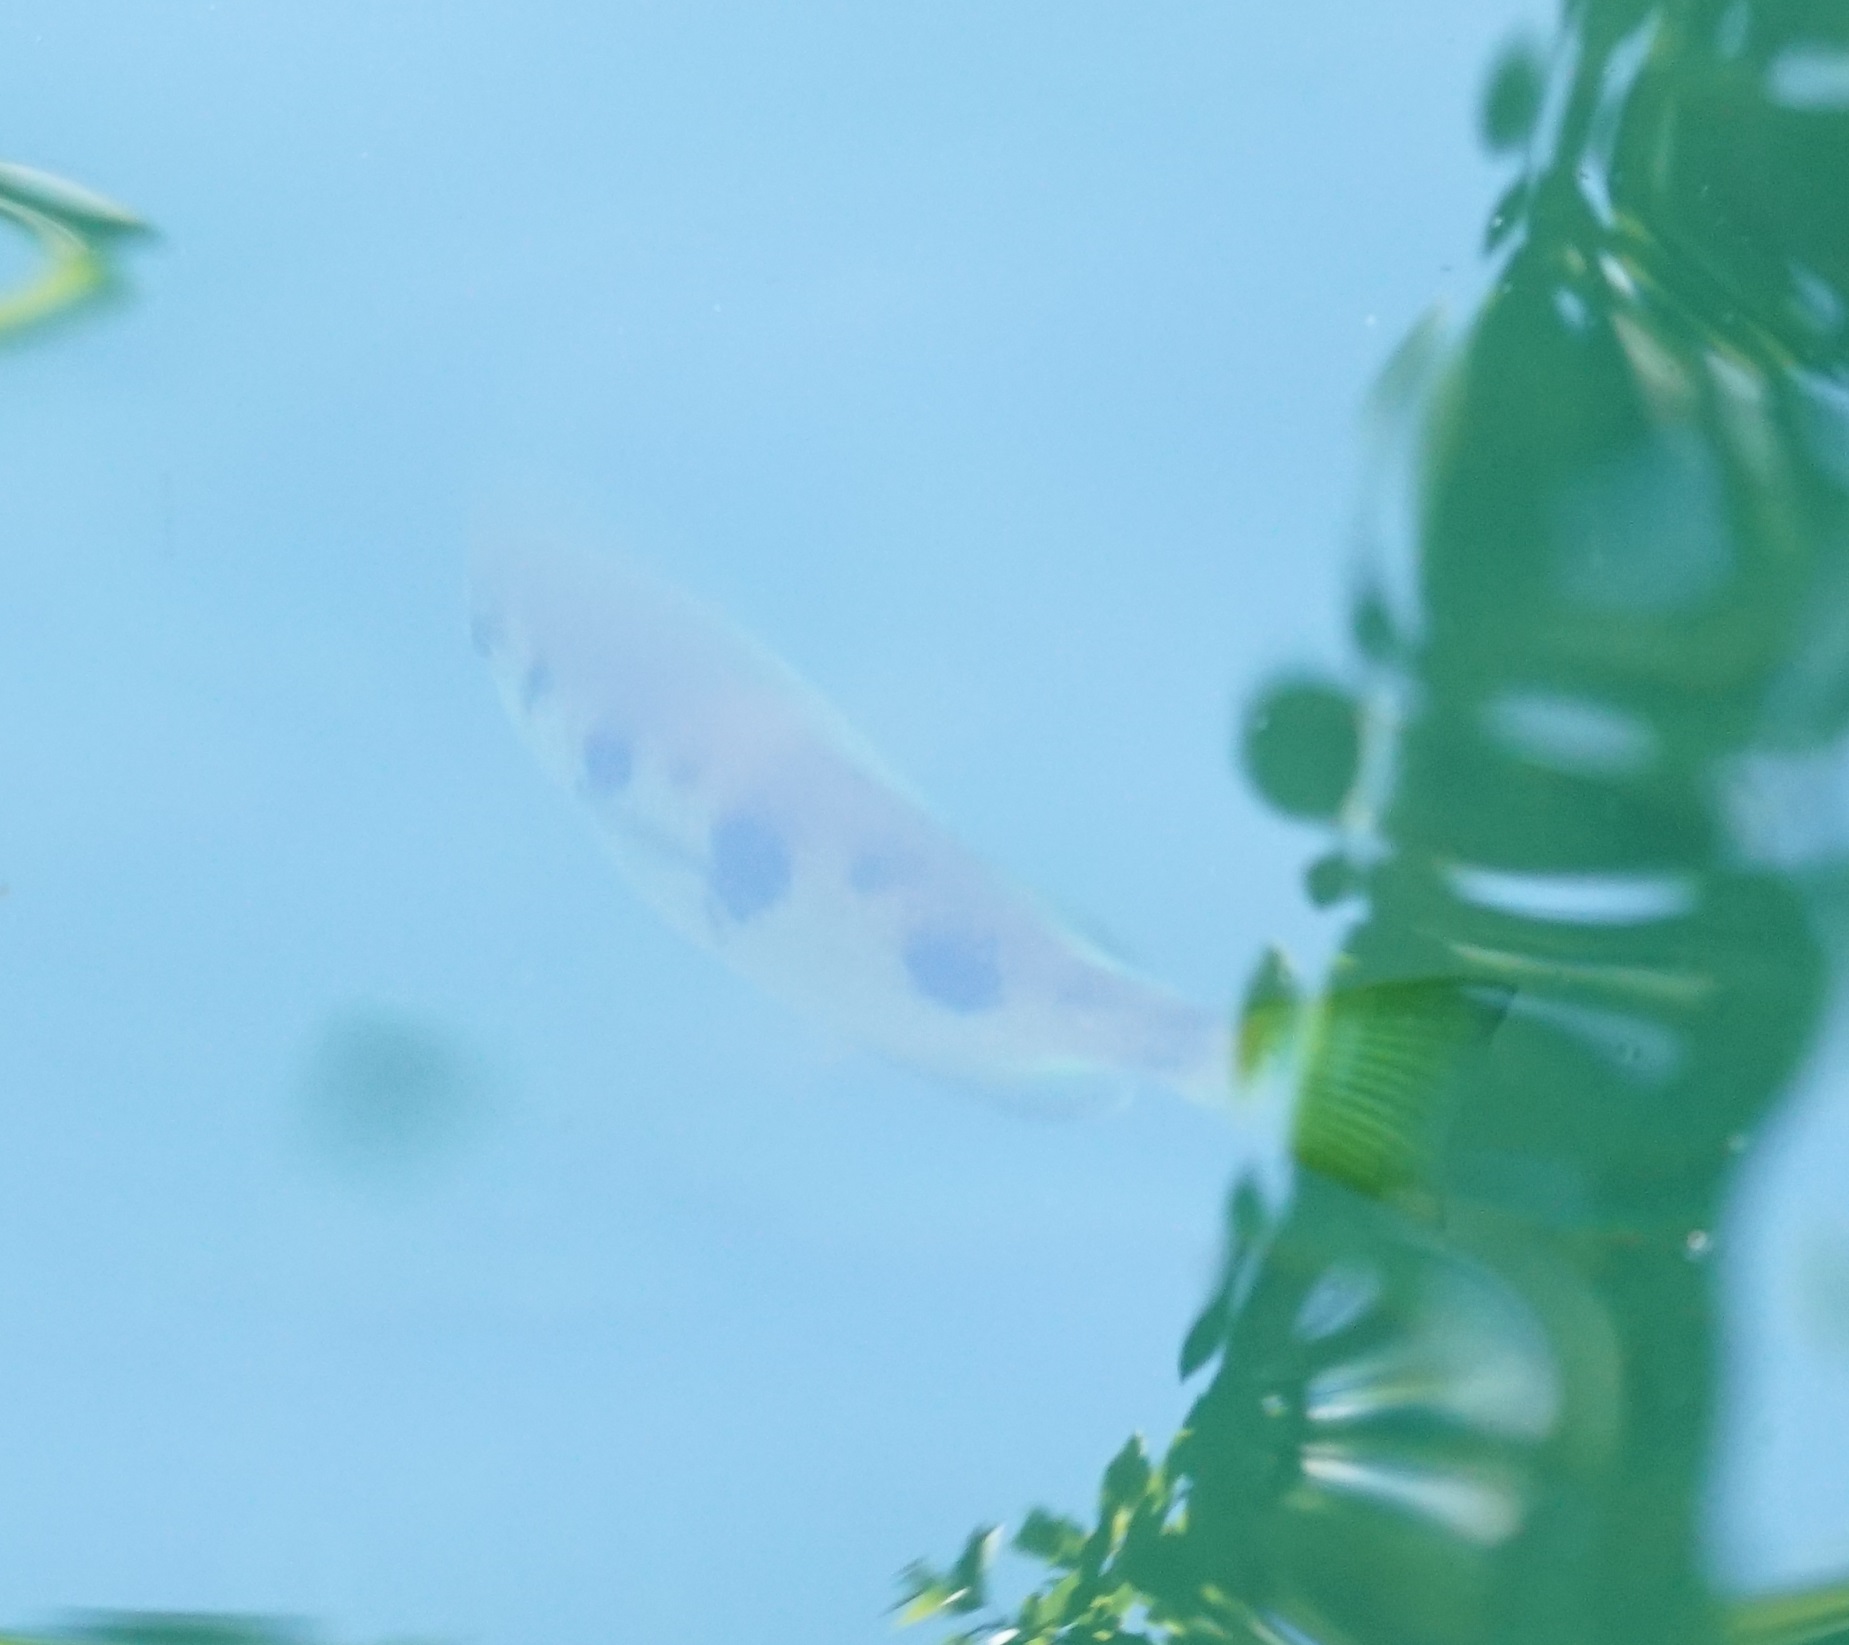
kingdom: Animalia
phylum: Chordata
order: Perciformes
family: Toxotidae
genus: Toxotes
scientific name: Toxotes chatareus
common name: Spotted archerfish
